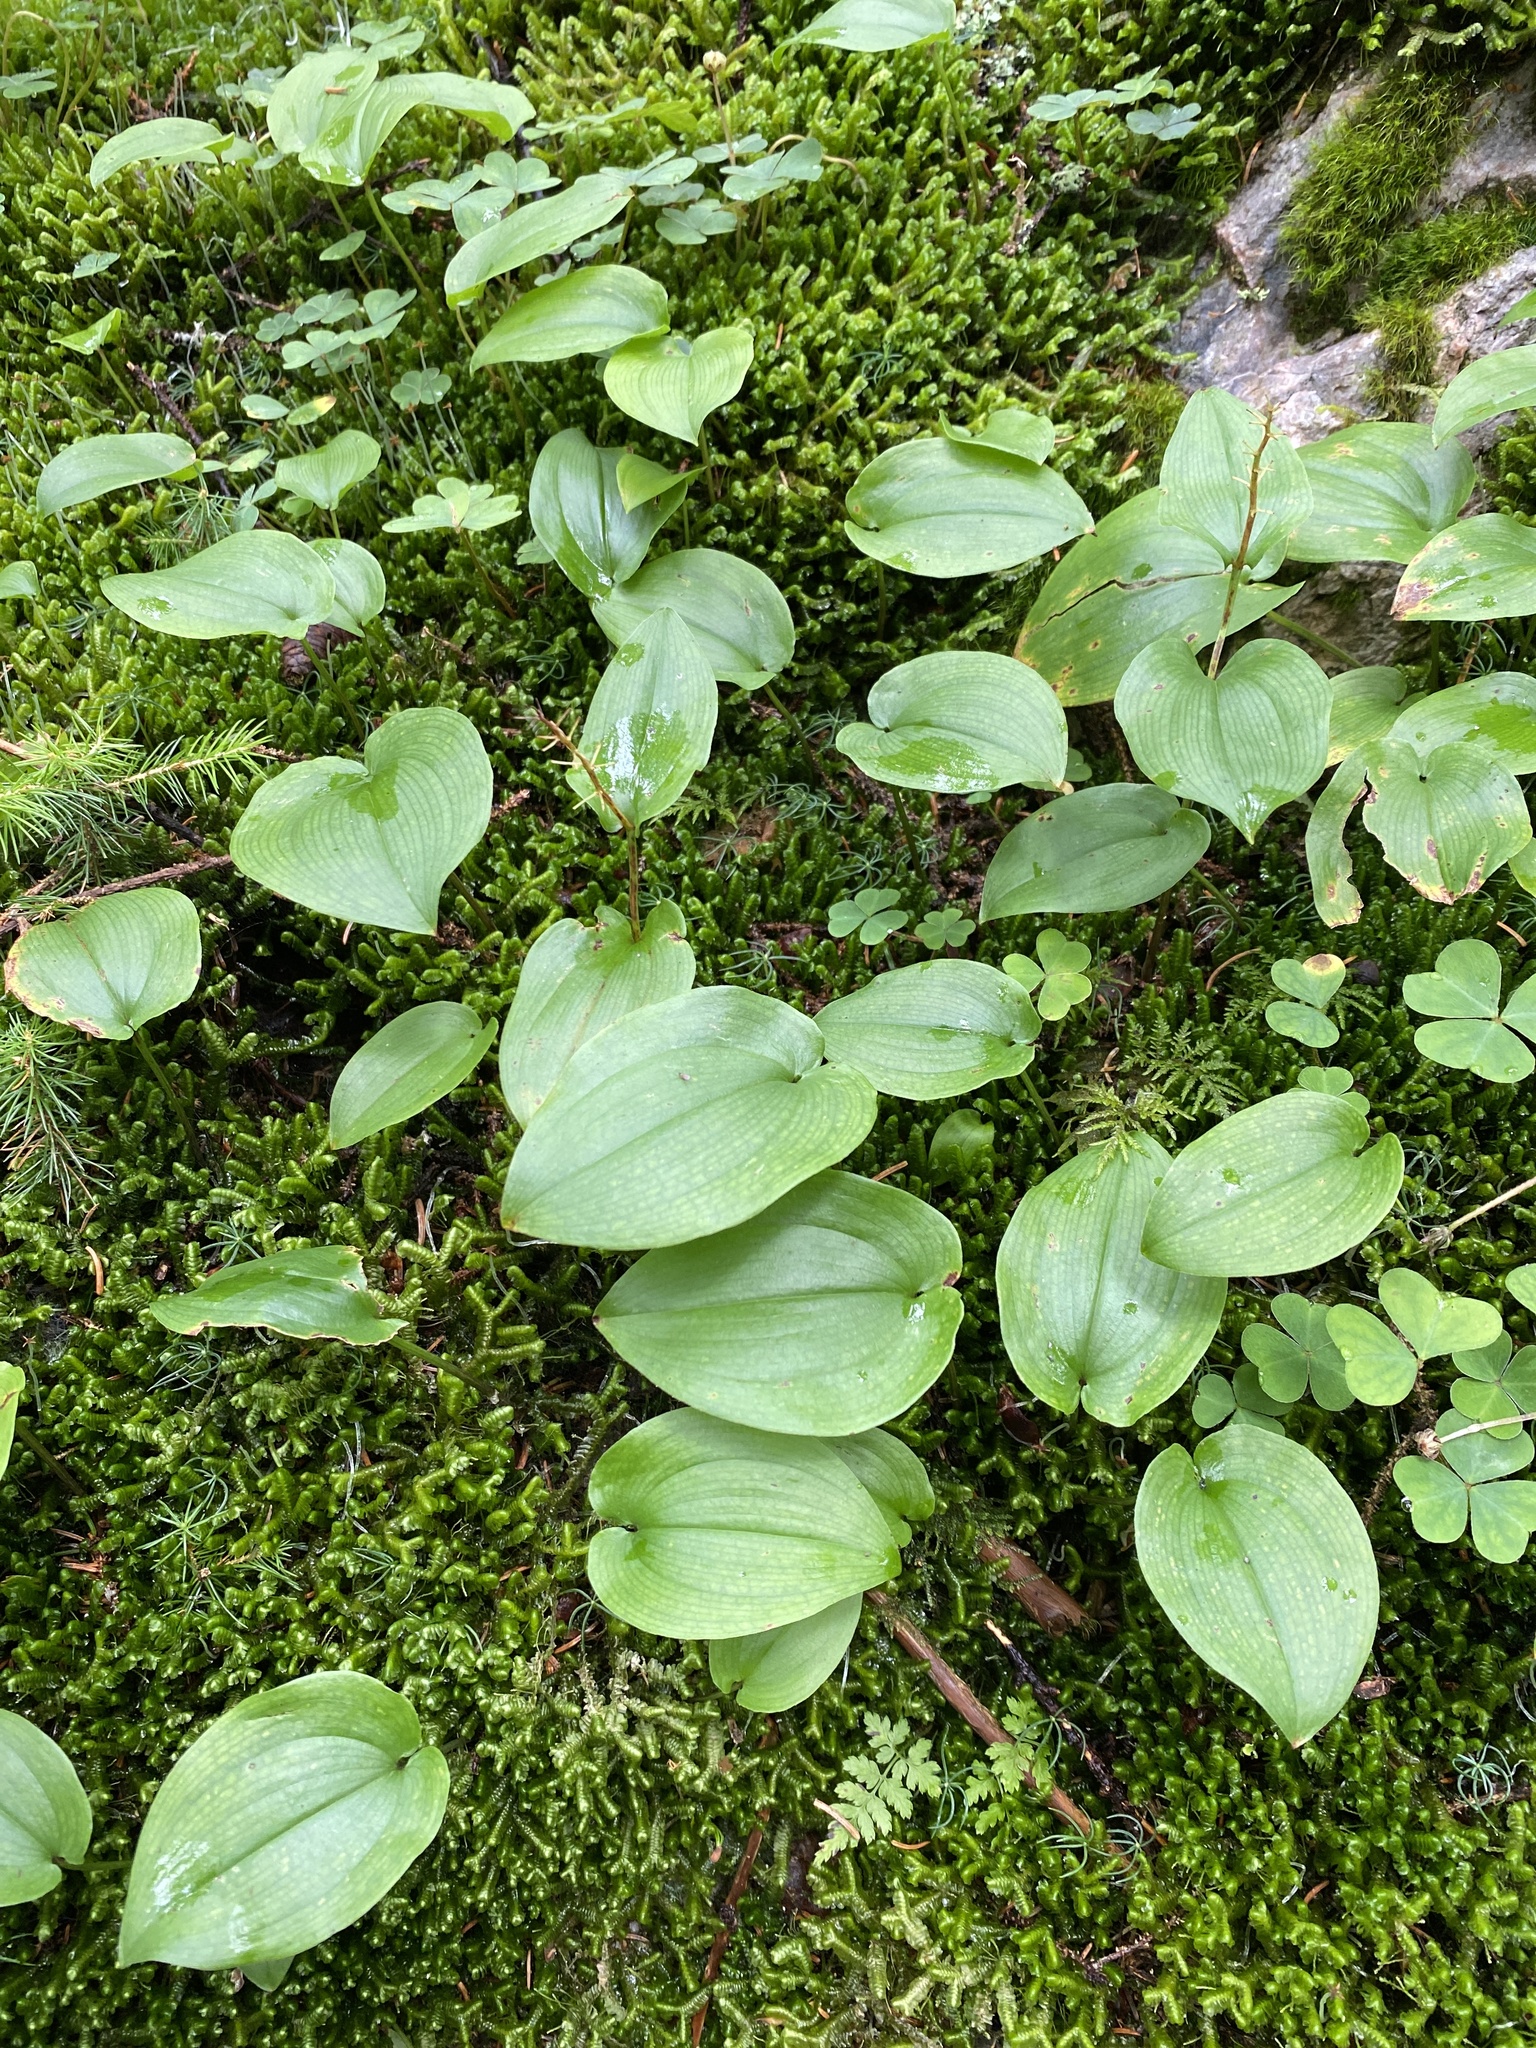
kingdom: Plantae
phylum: Tracheophyta
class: Liliopsida
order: Asparagales
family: Asparagaceae
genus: Maianthemum
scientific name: Maianthemum canadense
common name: False lily-of-the-valley
